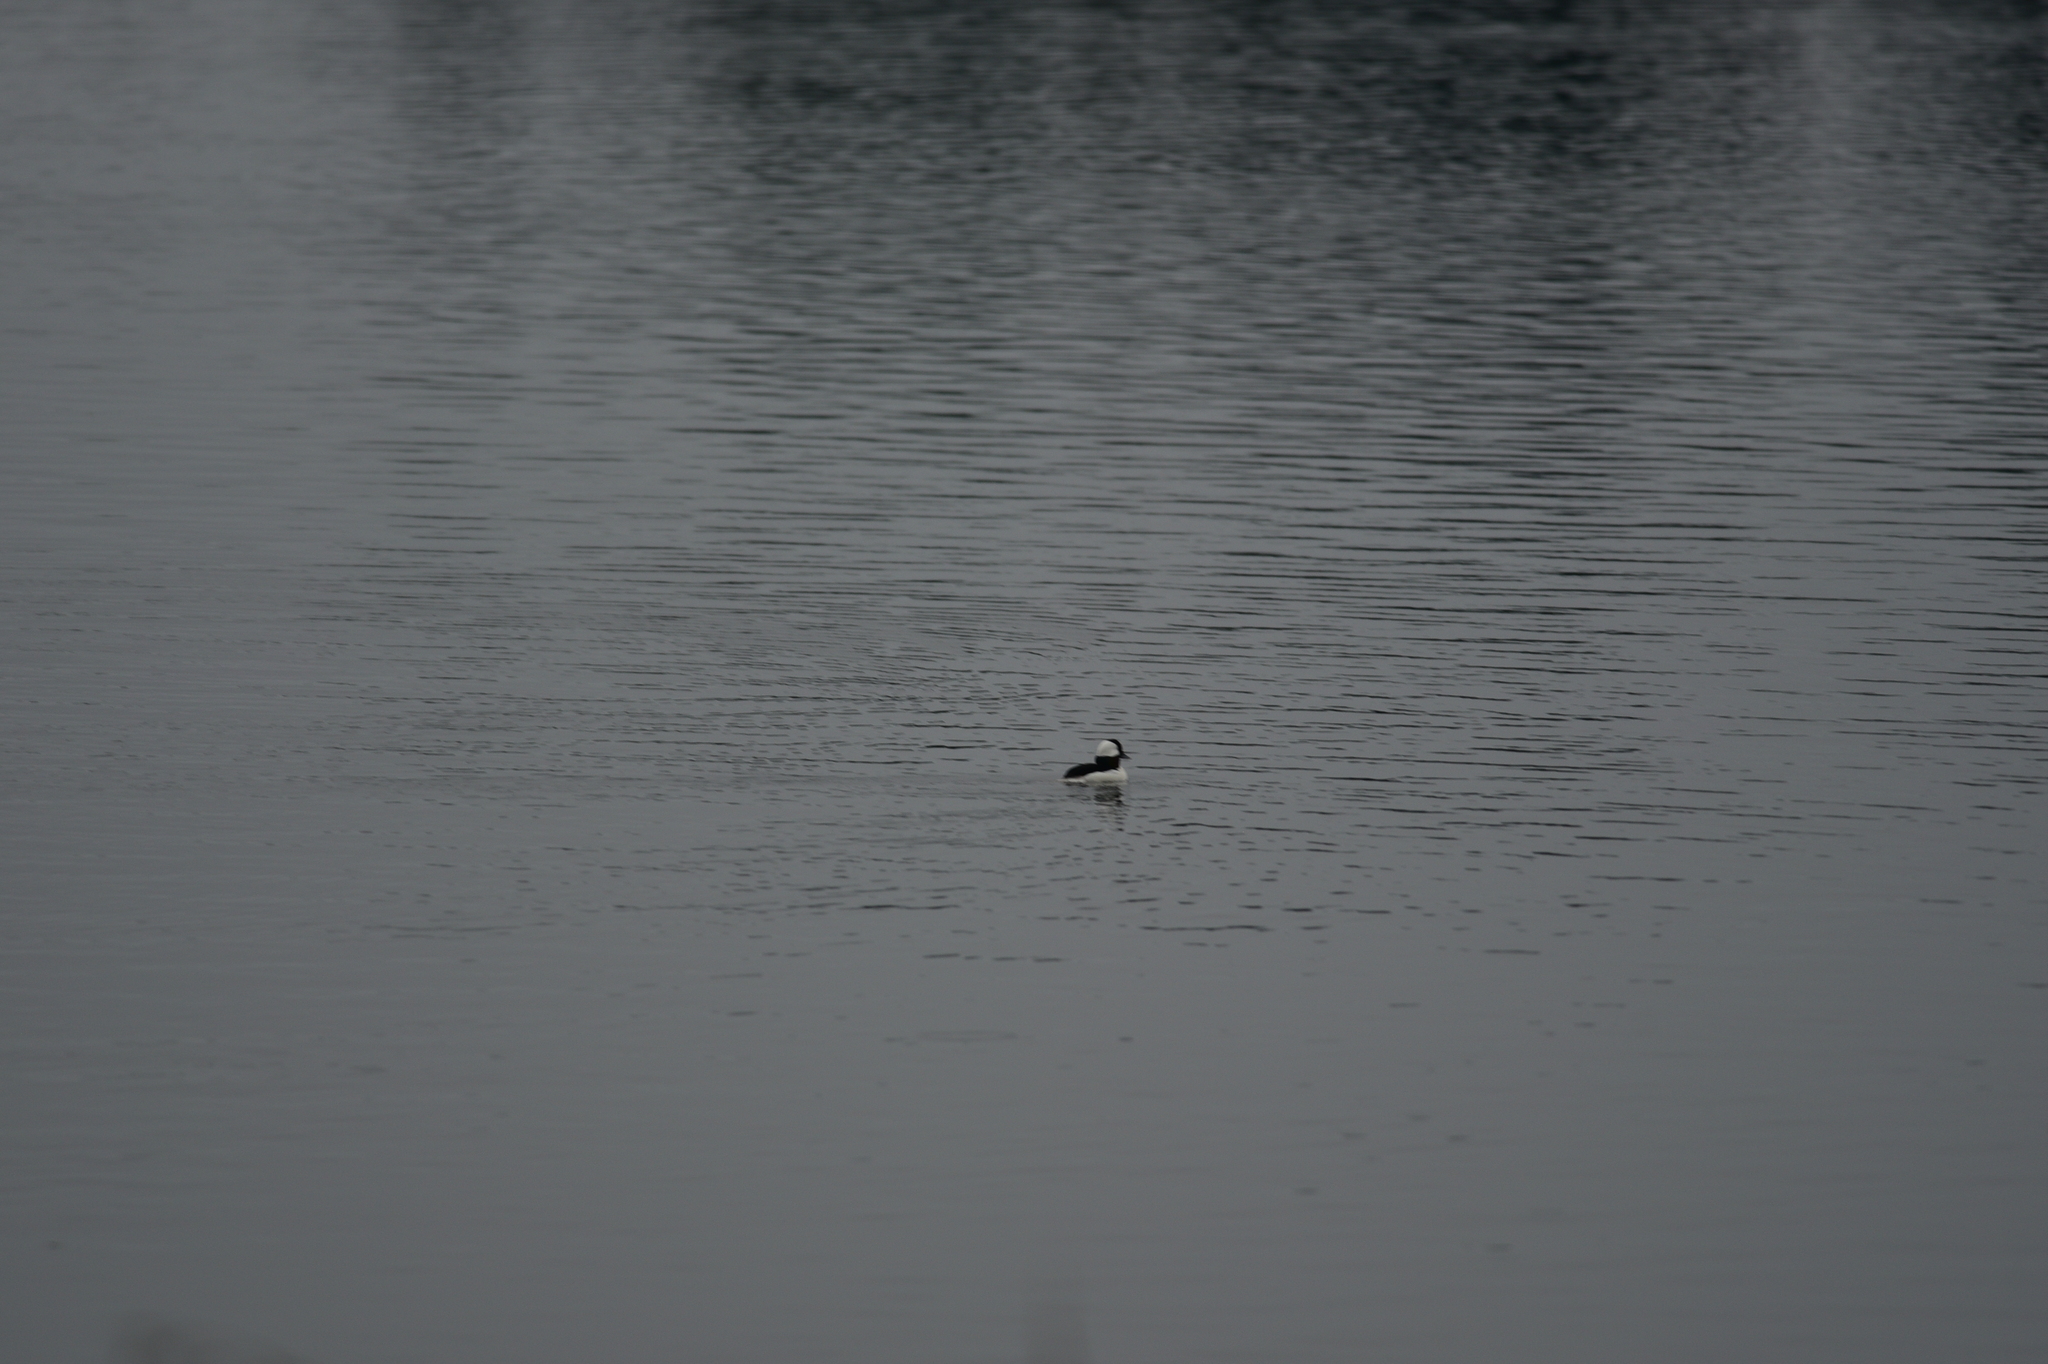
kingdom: Animalia
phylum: Chordata
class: Aves
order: Anseriformes
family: Anatidae
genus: Bucephala
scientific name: Bucephala albeola
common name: Bufflehead
